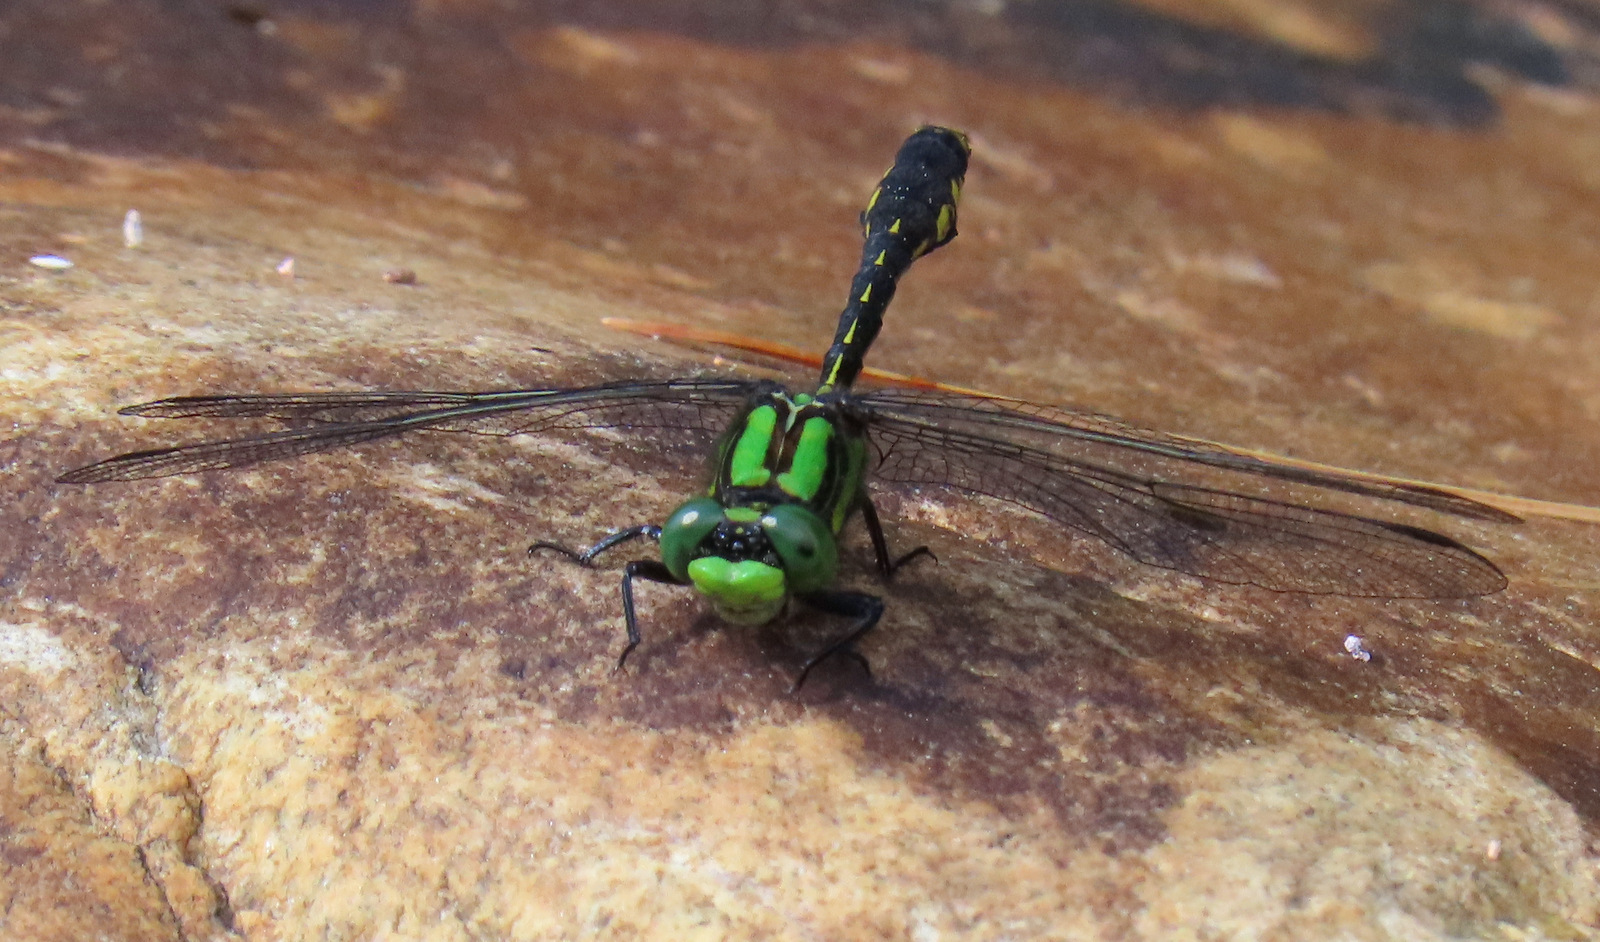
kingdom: Animalia
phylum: Arthropoda
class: Insecta
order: Odonata
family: Gomphidae
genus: Ophiogomphus
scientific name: Ophiogomphus mainensis
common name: Maine snaketail
